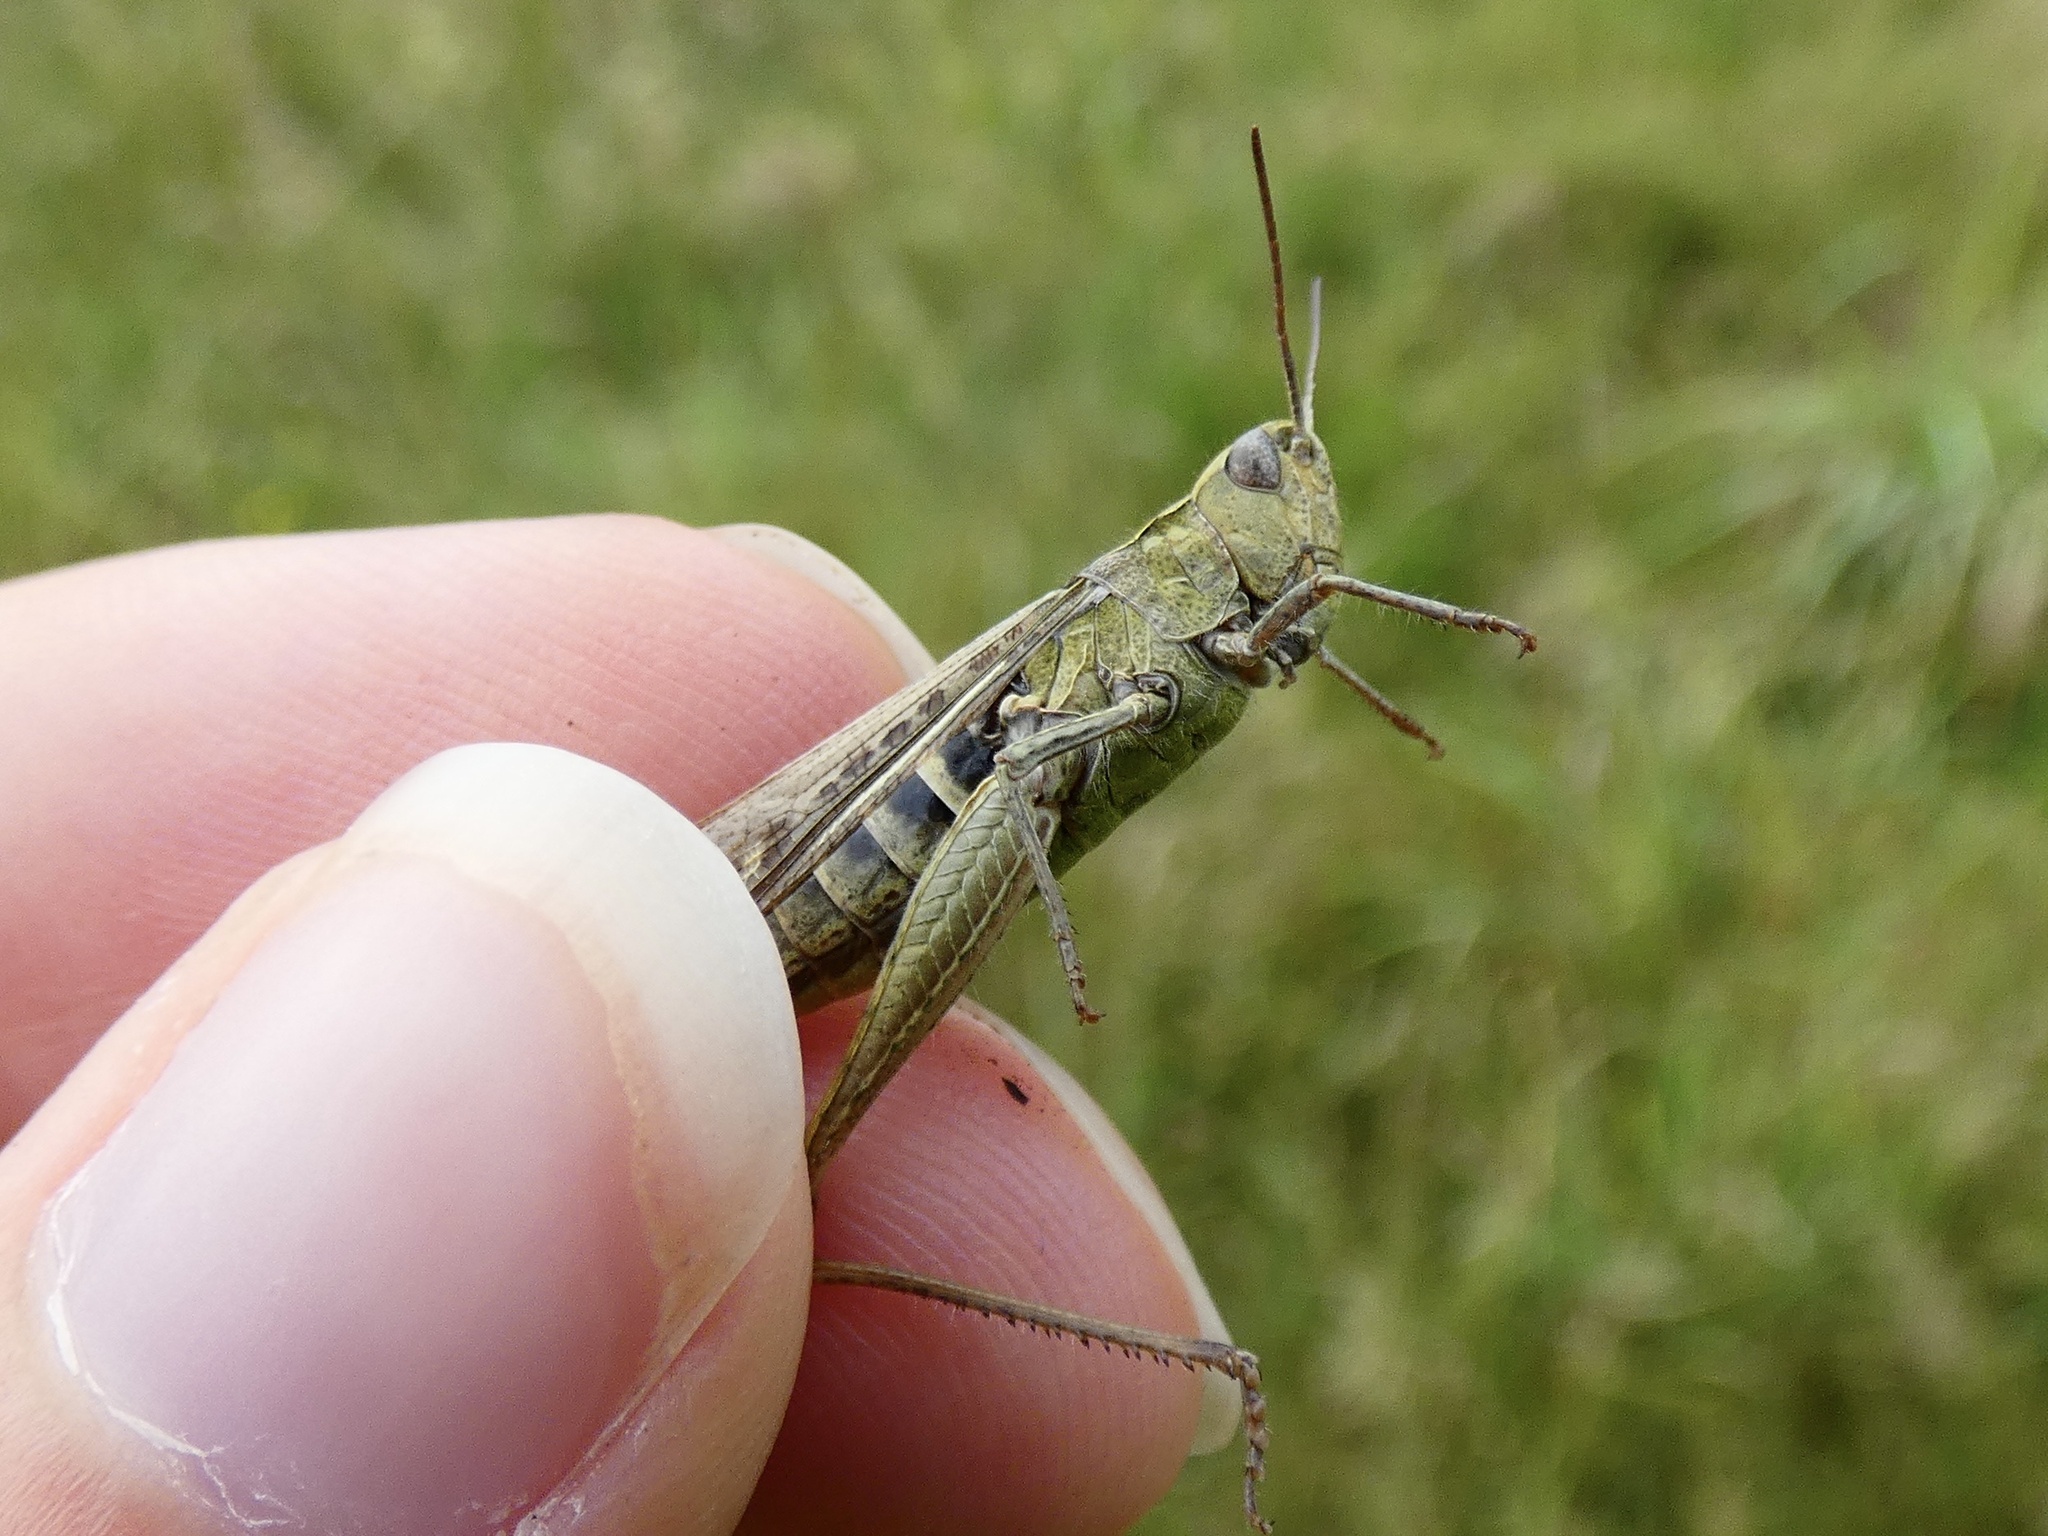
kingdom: Animalia
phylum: Arthropoda
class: Insecta
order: Orthoptera
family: Acrididae
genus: Chorthippus
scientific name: Chorthippus brunneus
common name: Field grasshopper
